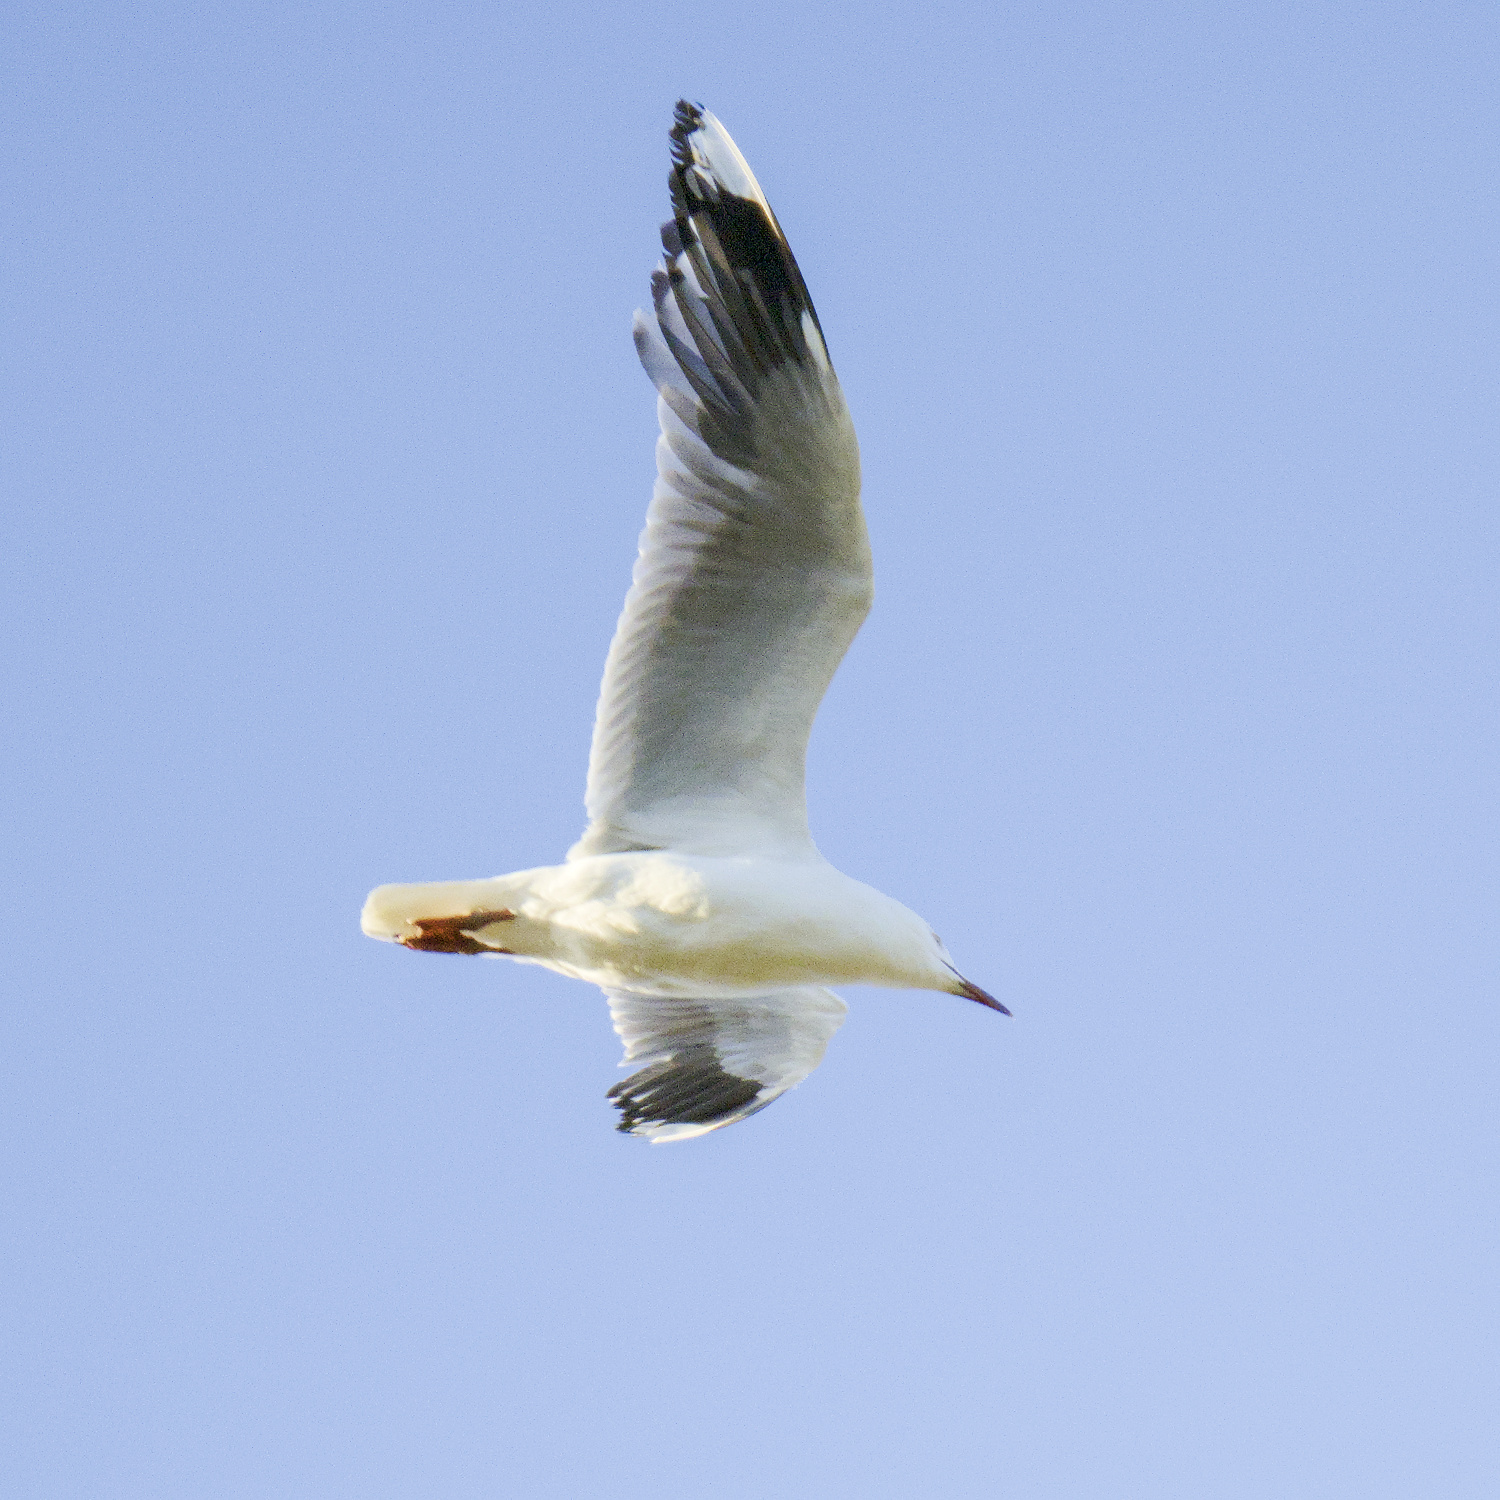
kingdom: Animalia
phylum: Chordata
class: Aves
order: Charadriiformes
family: Laridae
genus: Chroicocephalus
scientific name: Chroicocephalus novaehollandiae
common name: Silver gull
